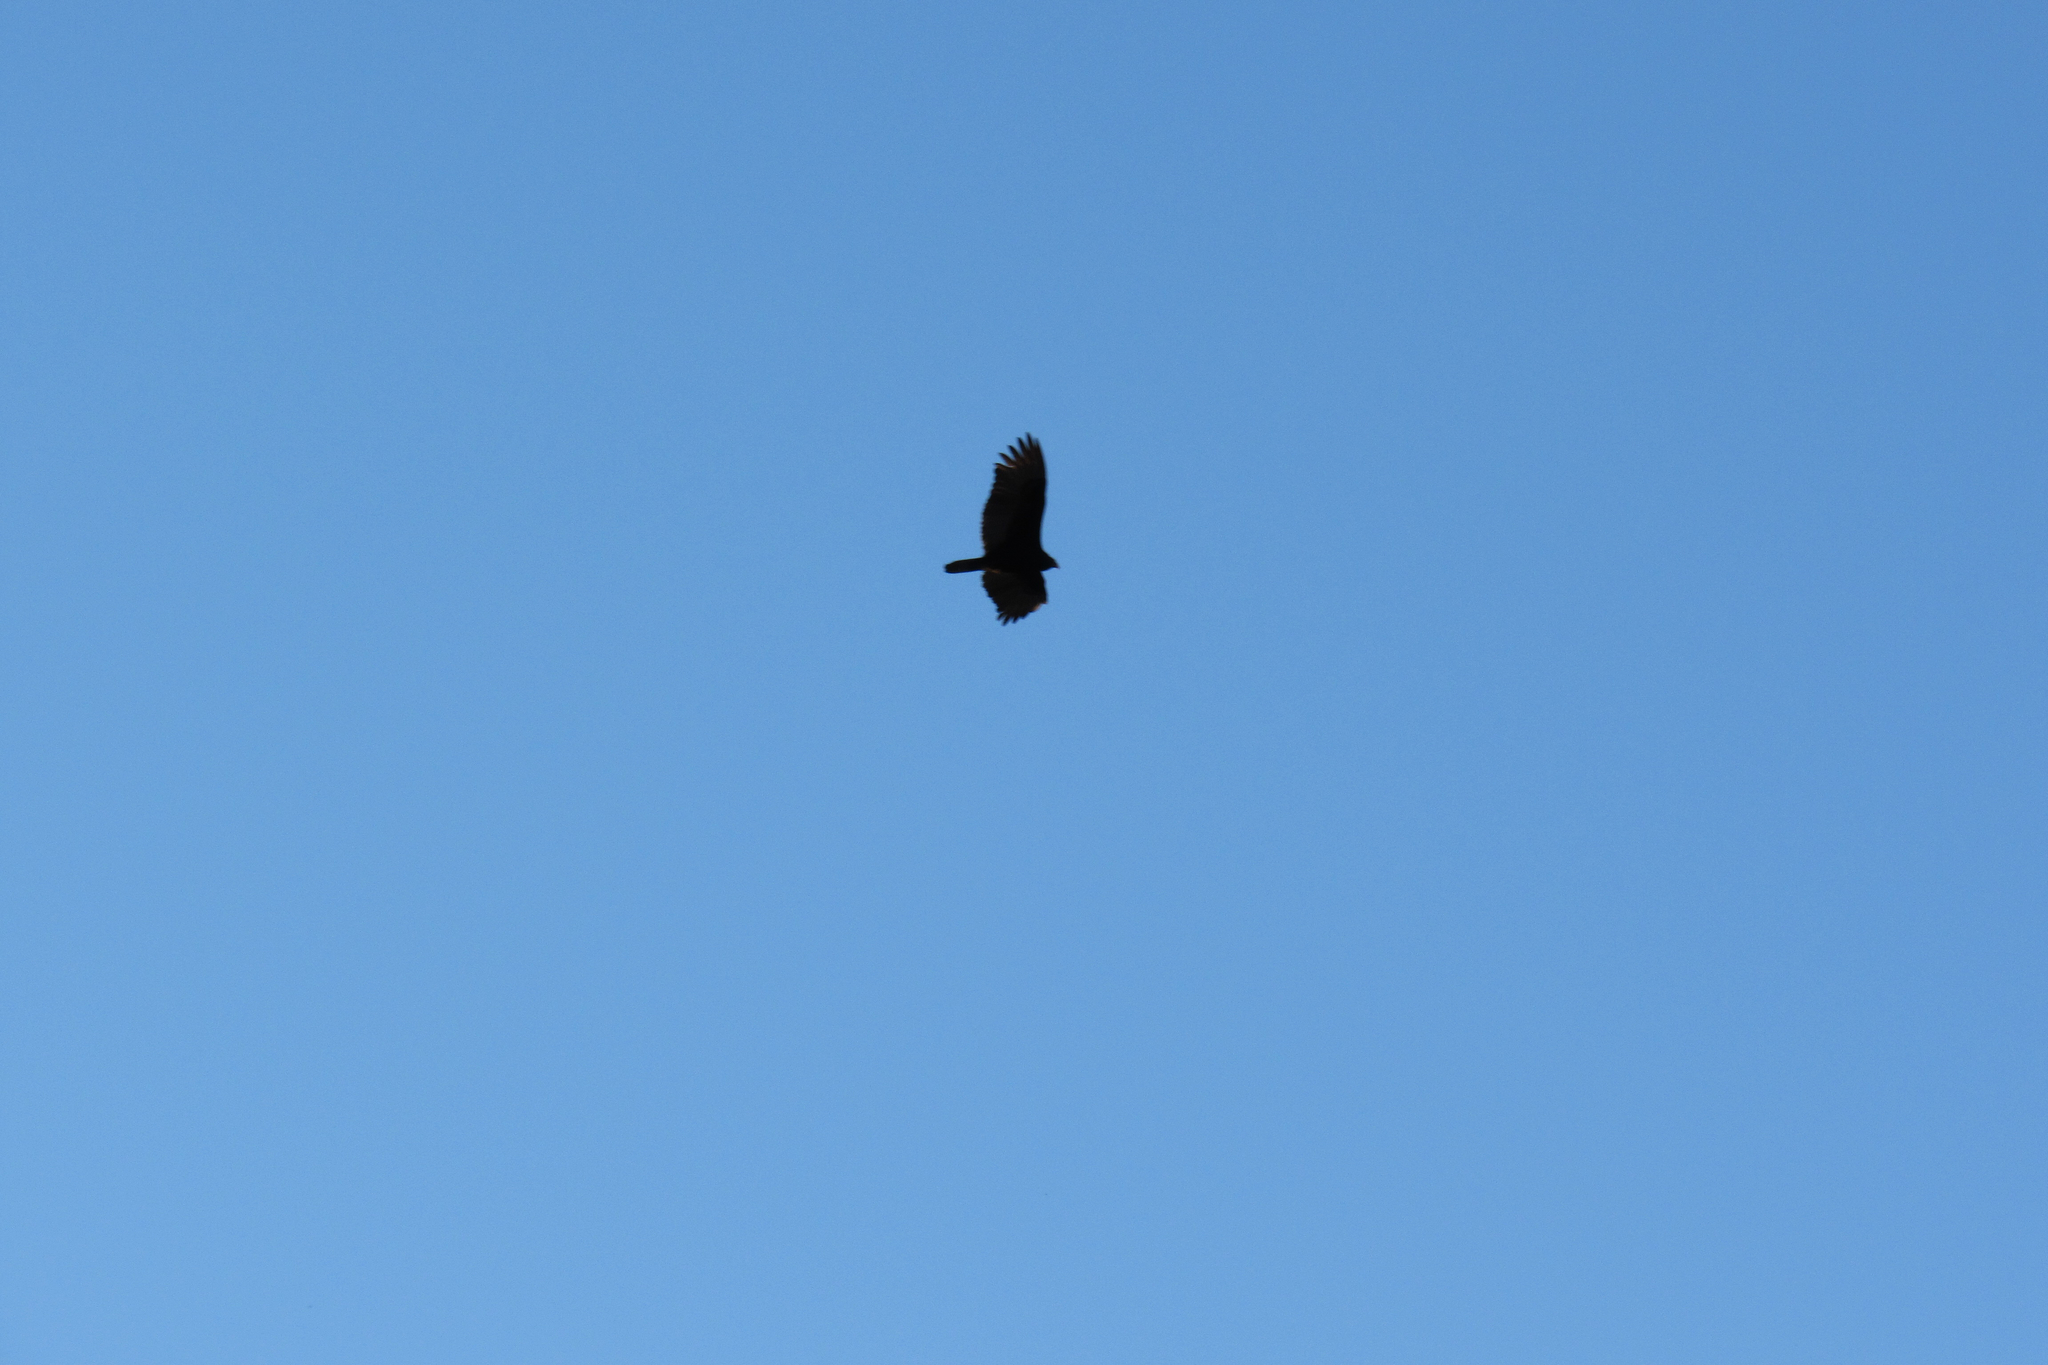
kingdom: Animalia
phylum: Chordata
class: Aves
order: Accipitriformes
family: Cathartidae
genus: Cathartes
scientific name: Cathartes aura
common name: Turkey vulture
